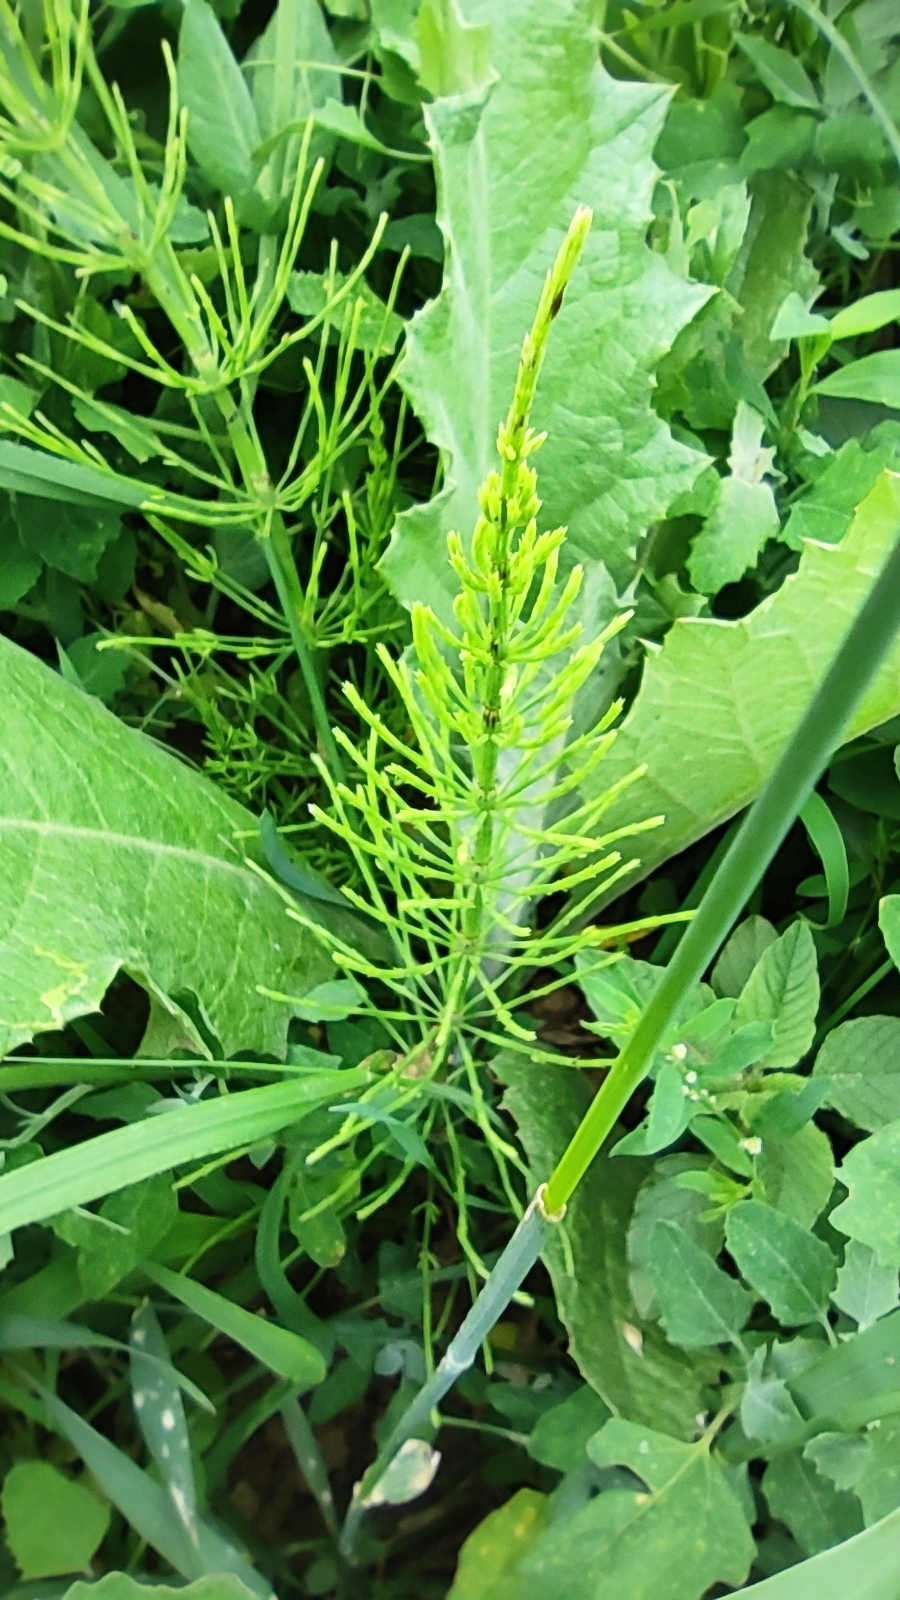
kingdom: Plantae
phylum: Tracheophyta
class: Polypodiopsida
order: Equisetales
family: Equisetaceae
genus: Equisetum
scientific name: Equisetum arvense
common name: Field horsetail
